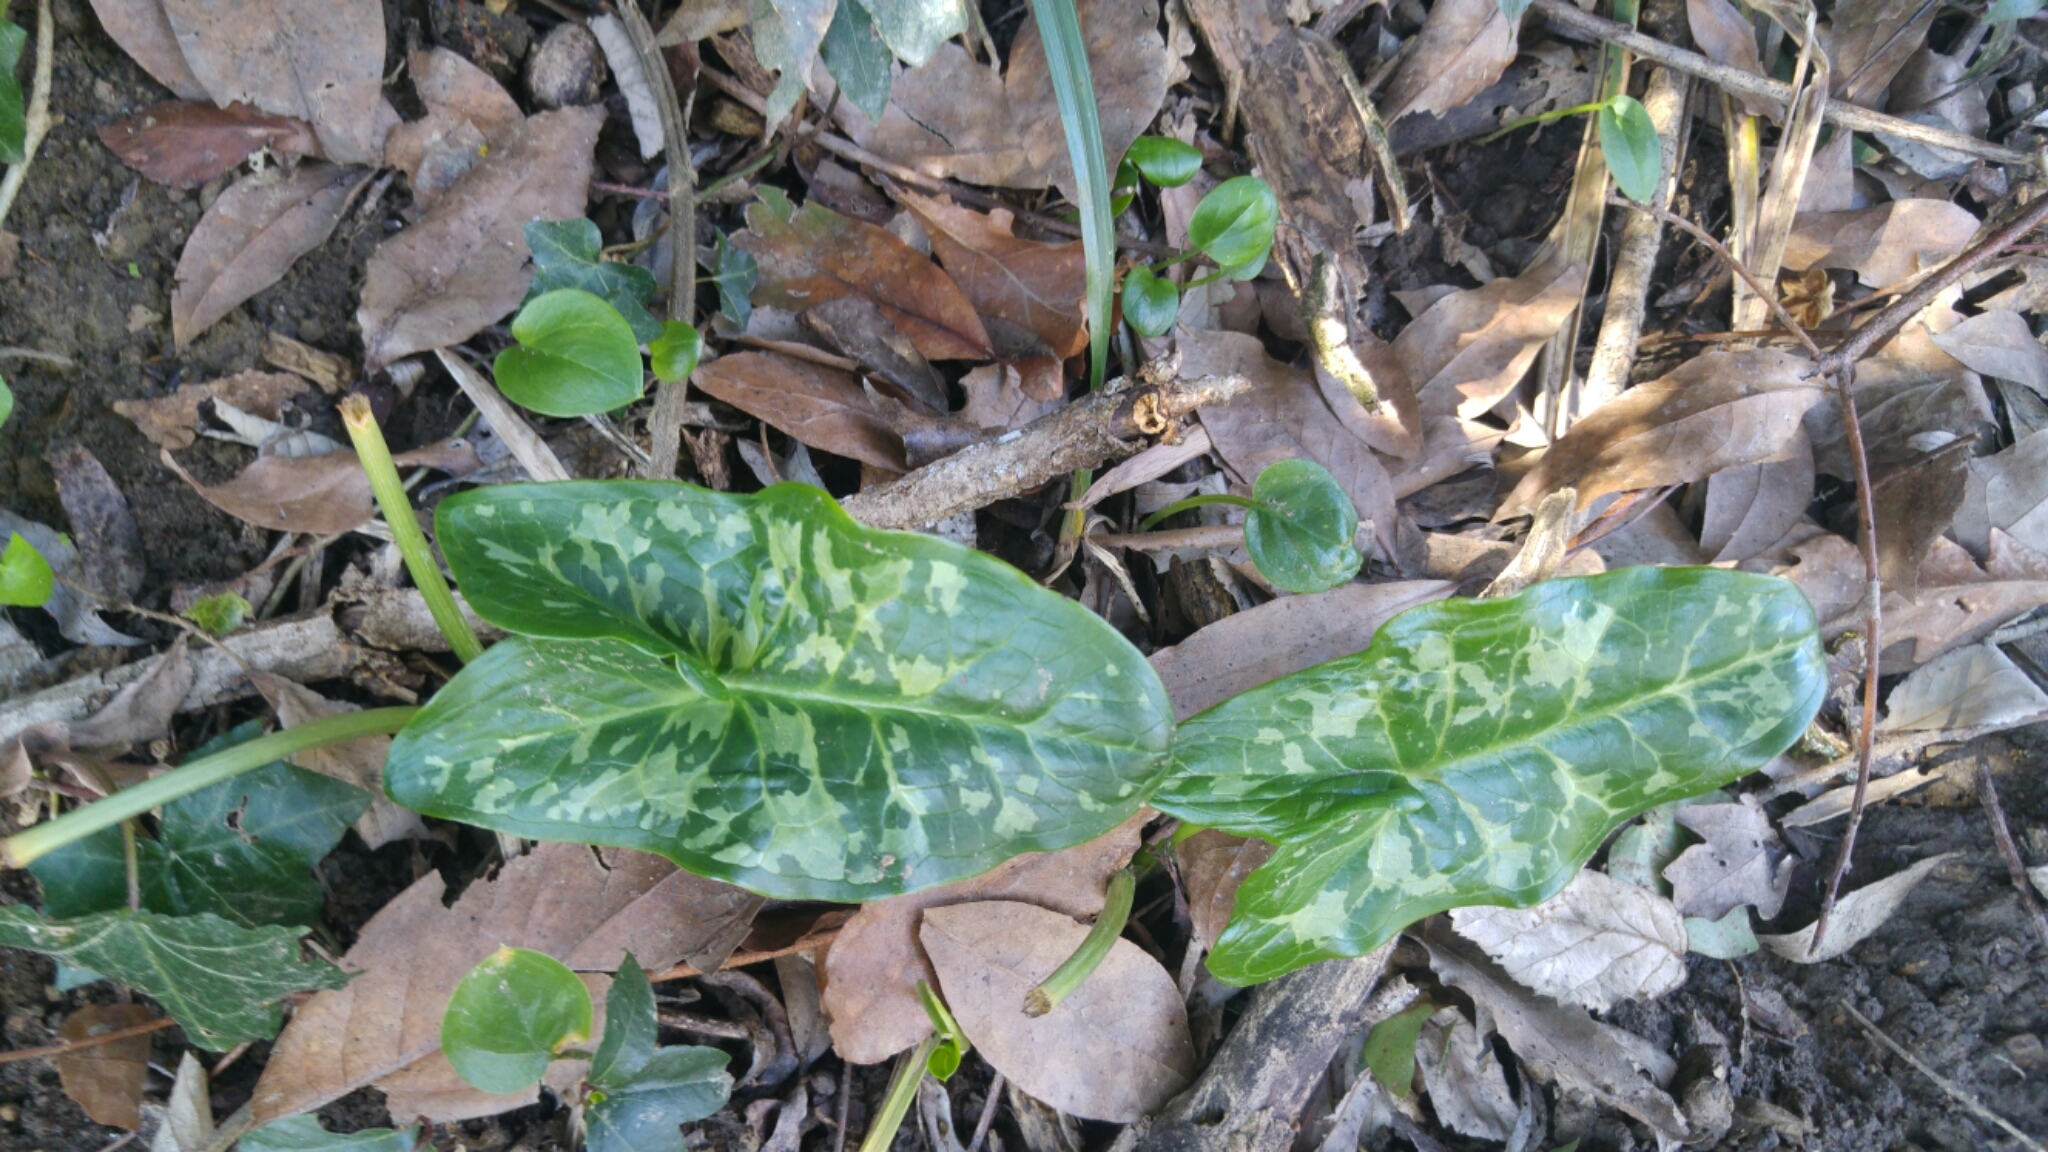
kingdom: Plantae
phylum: Tracheophyta
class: Liliopsida
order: Alismatales
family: Araceae
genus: Arum
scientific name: Arum italicum
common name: Italian lords-and-ladies
